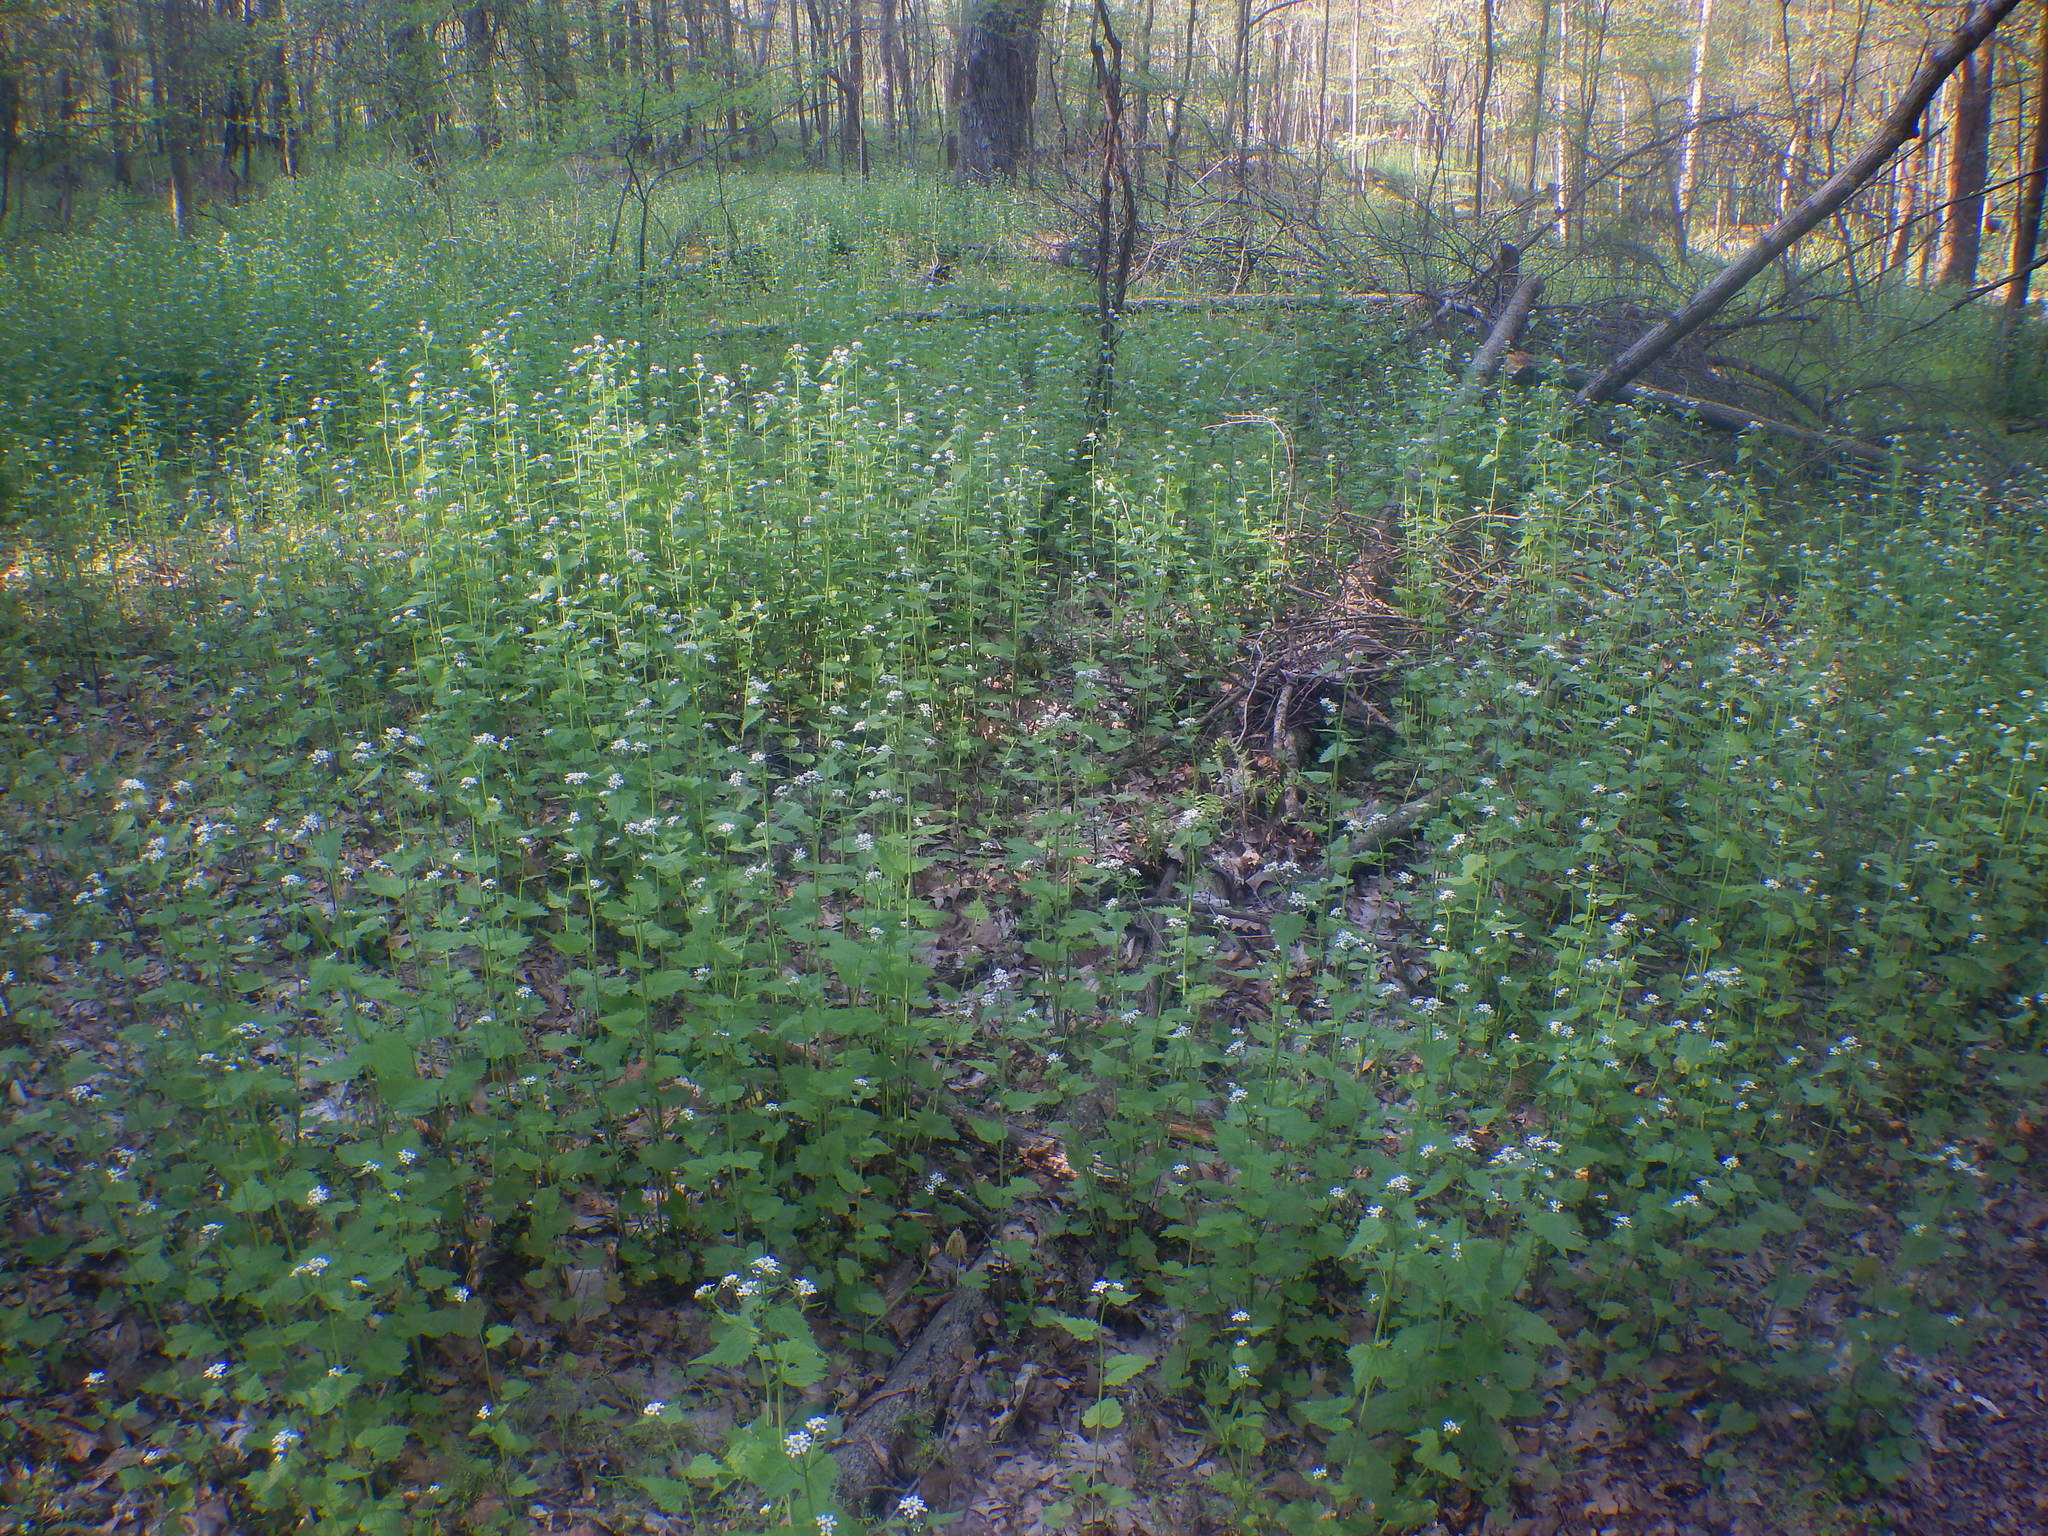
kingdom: Plantae
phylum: Tracheophyta
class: Magnoliopsida
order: Brassicales
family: Brassicaceae
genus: Alliaria
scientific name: Alliaria petiolata
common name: Garlic mustard
